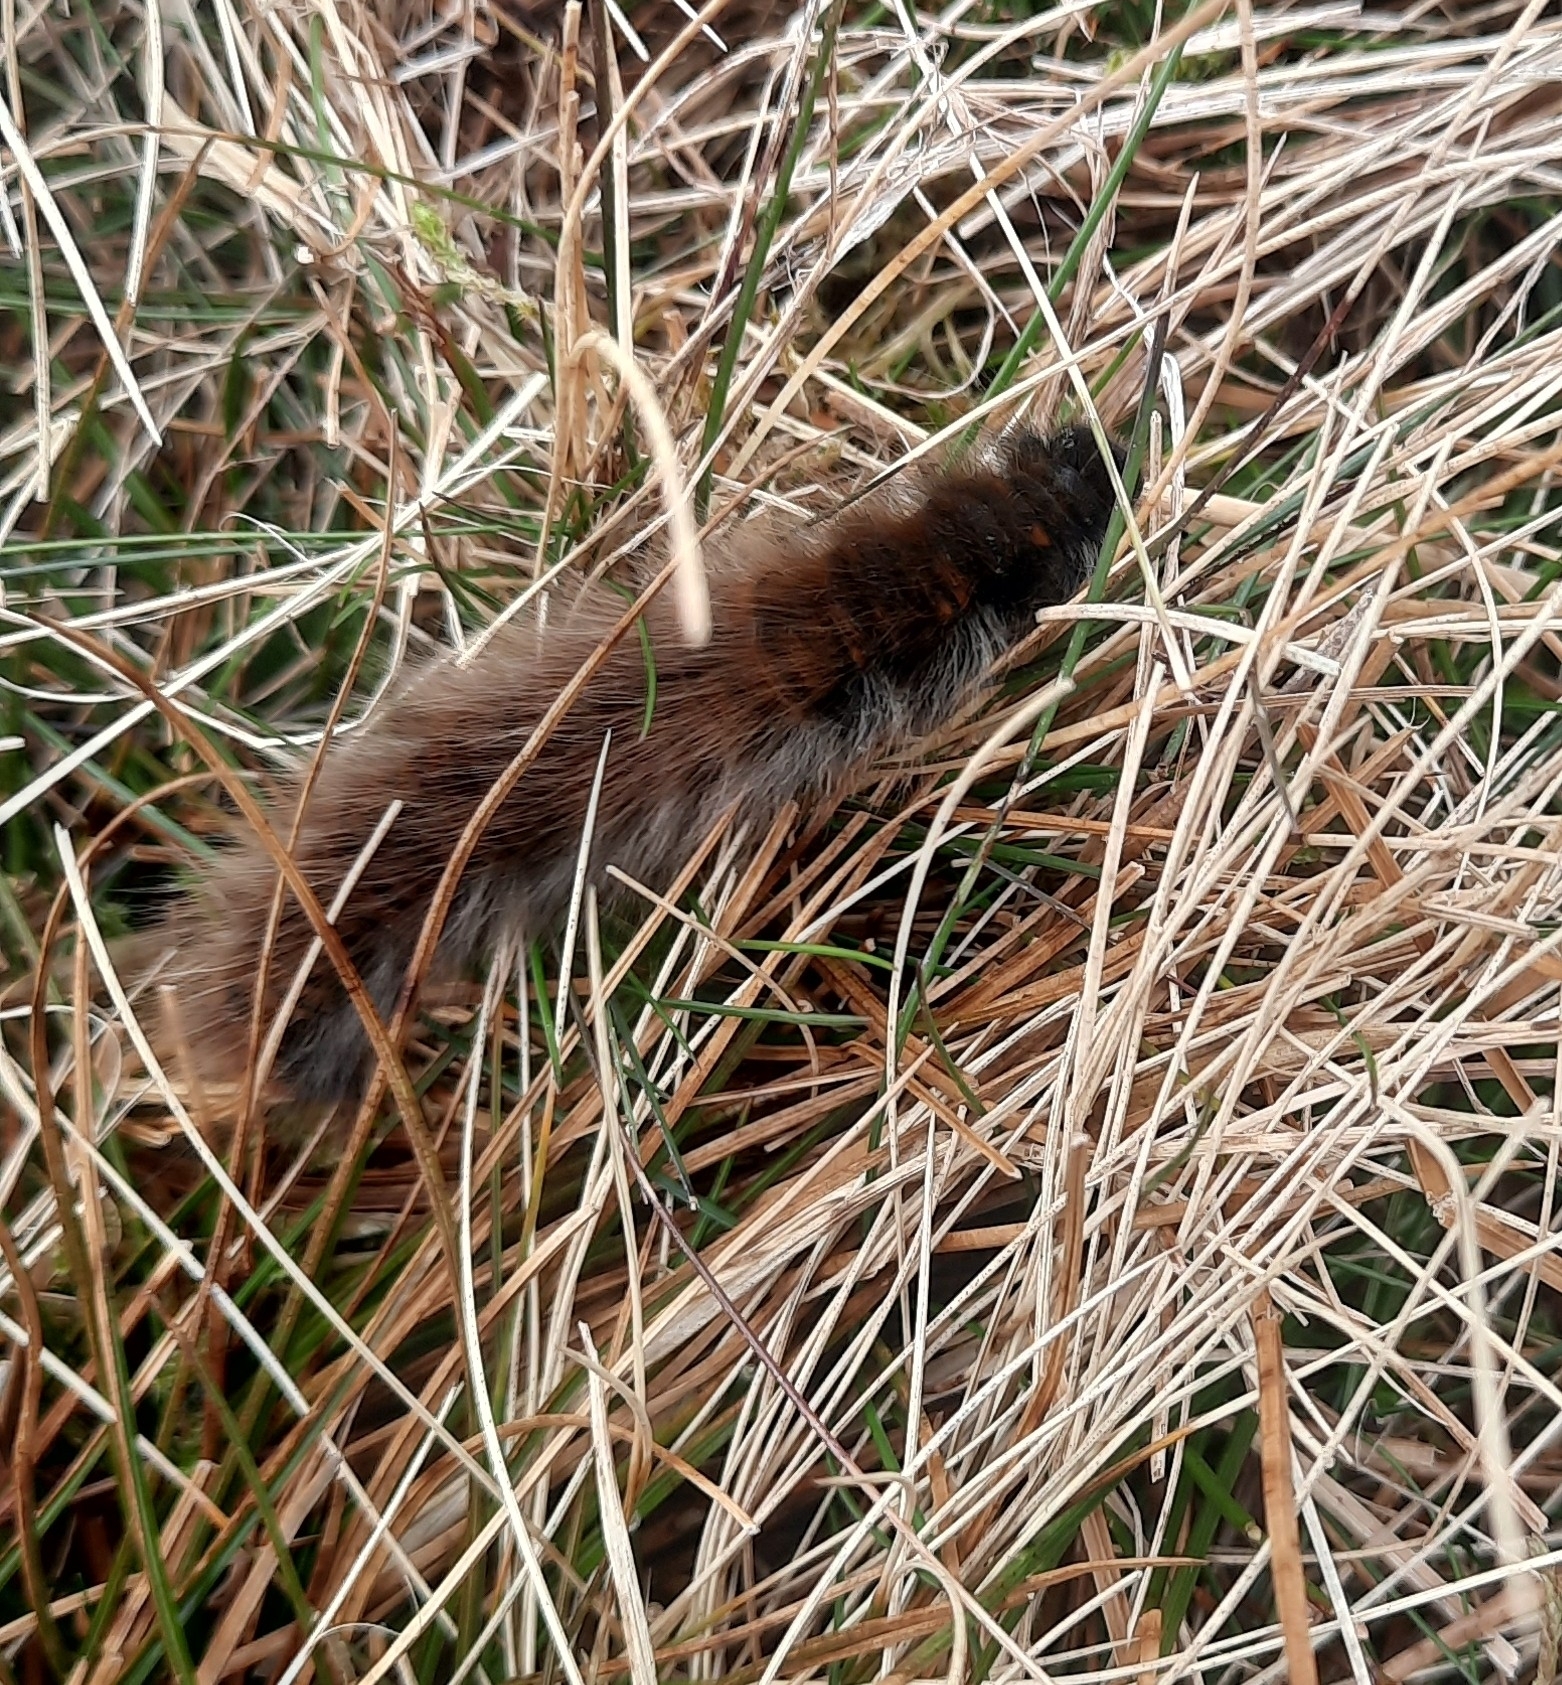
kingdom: Animalia
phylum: Arthropoda
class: Insecta
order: Lepidoptera
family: Lasiocampidae
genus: Macrothylacia
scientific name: Macrothylacia rubi
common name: Fox moth
